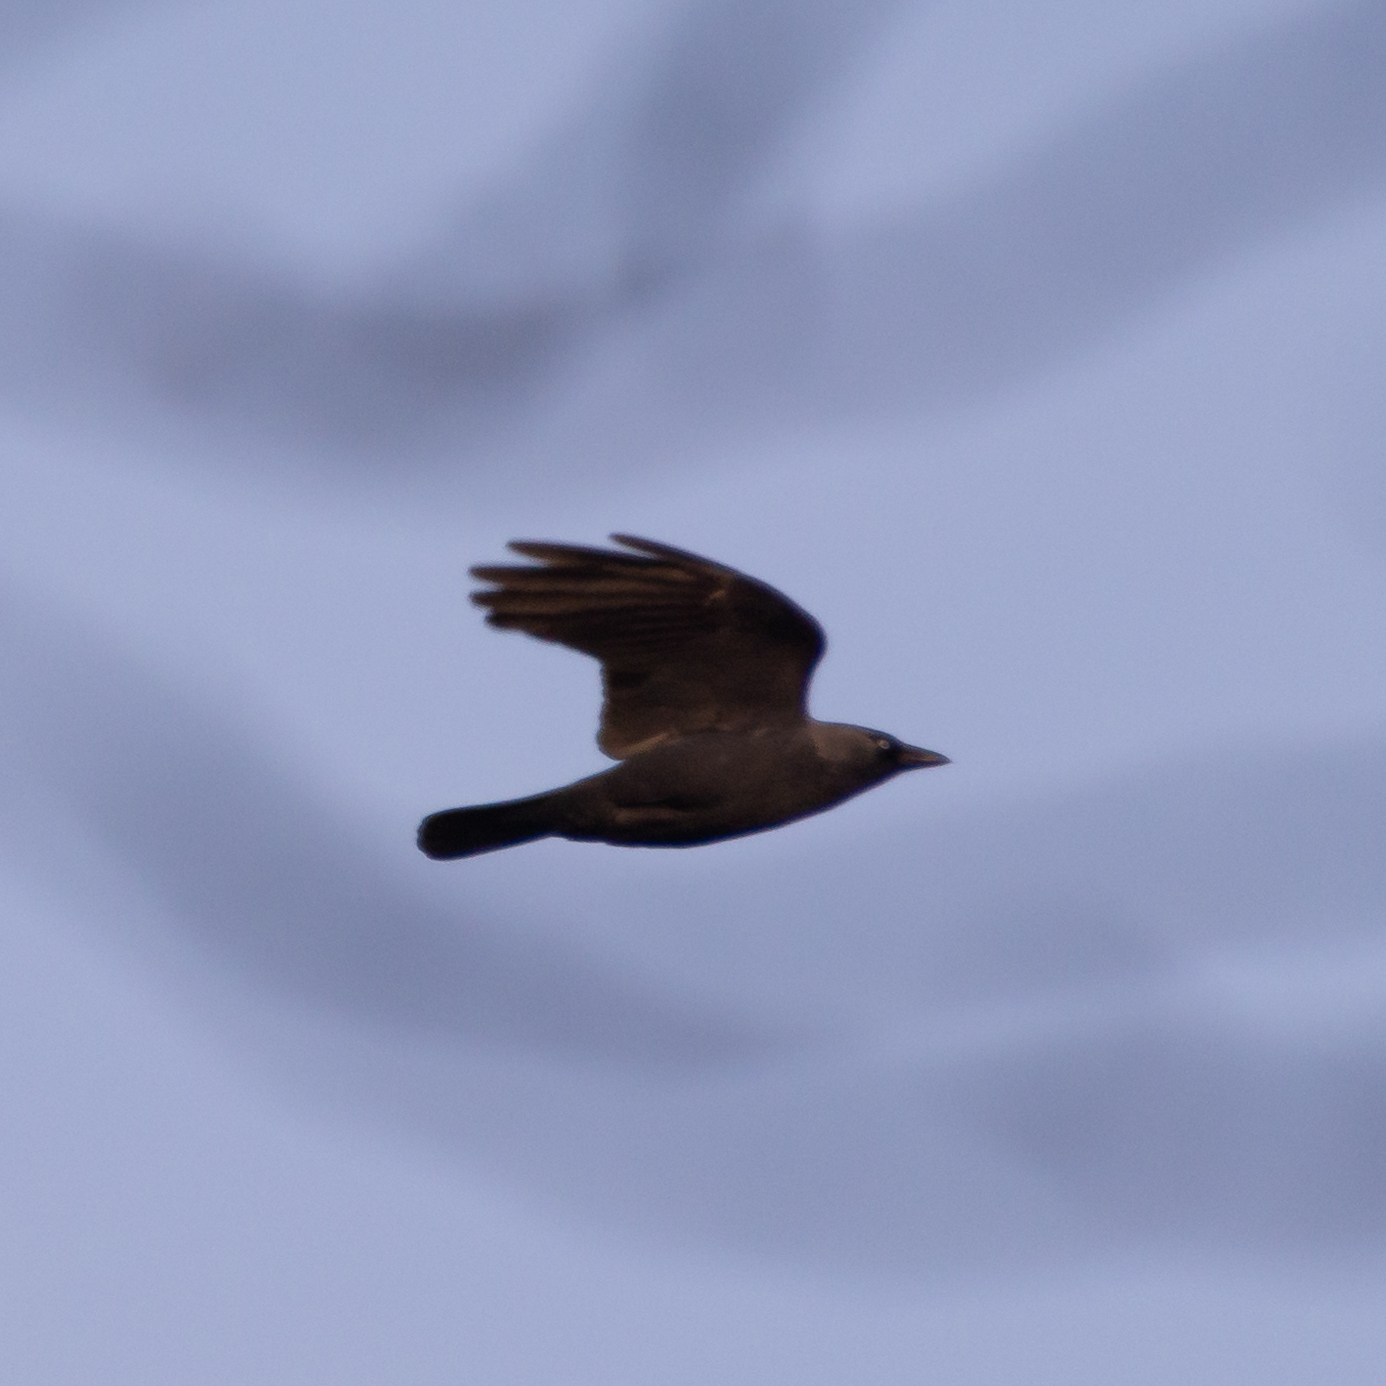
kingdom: Animalia
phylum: Chordata
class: Aves
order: Passeriformes
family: Corvidae
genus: Coloeus
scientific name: Coloeus monedula
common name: Western jackdaw
